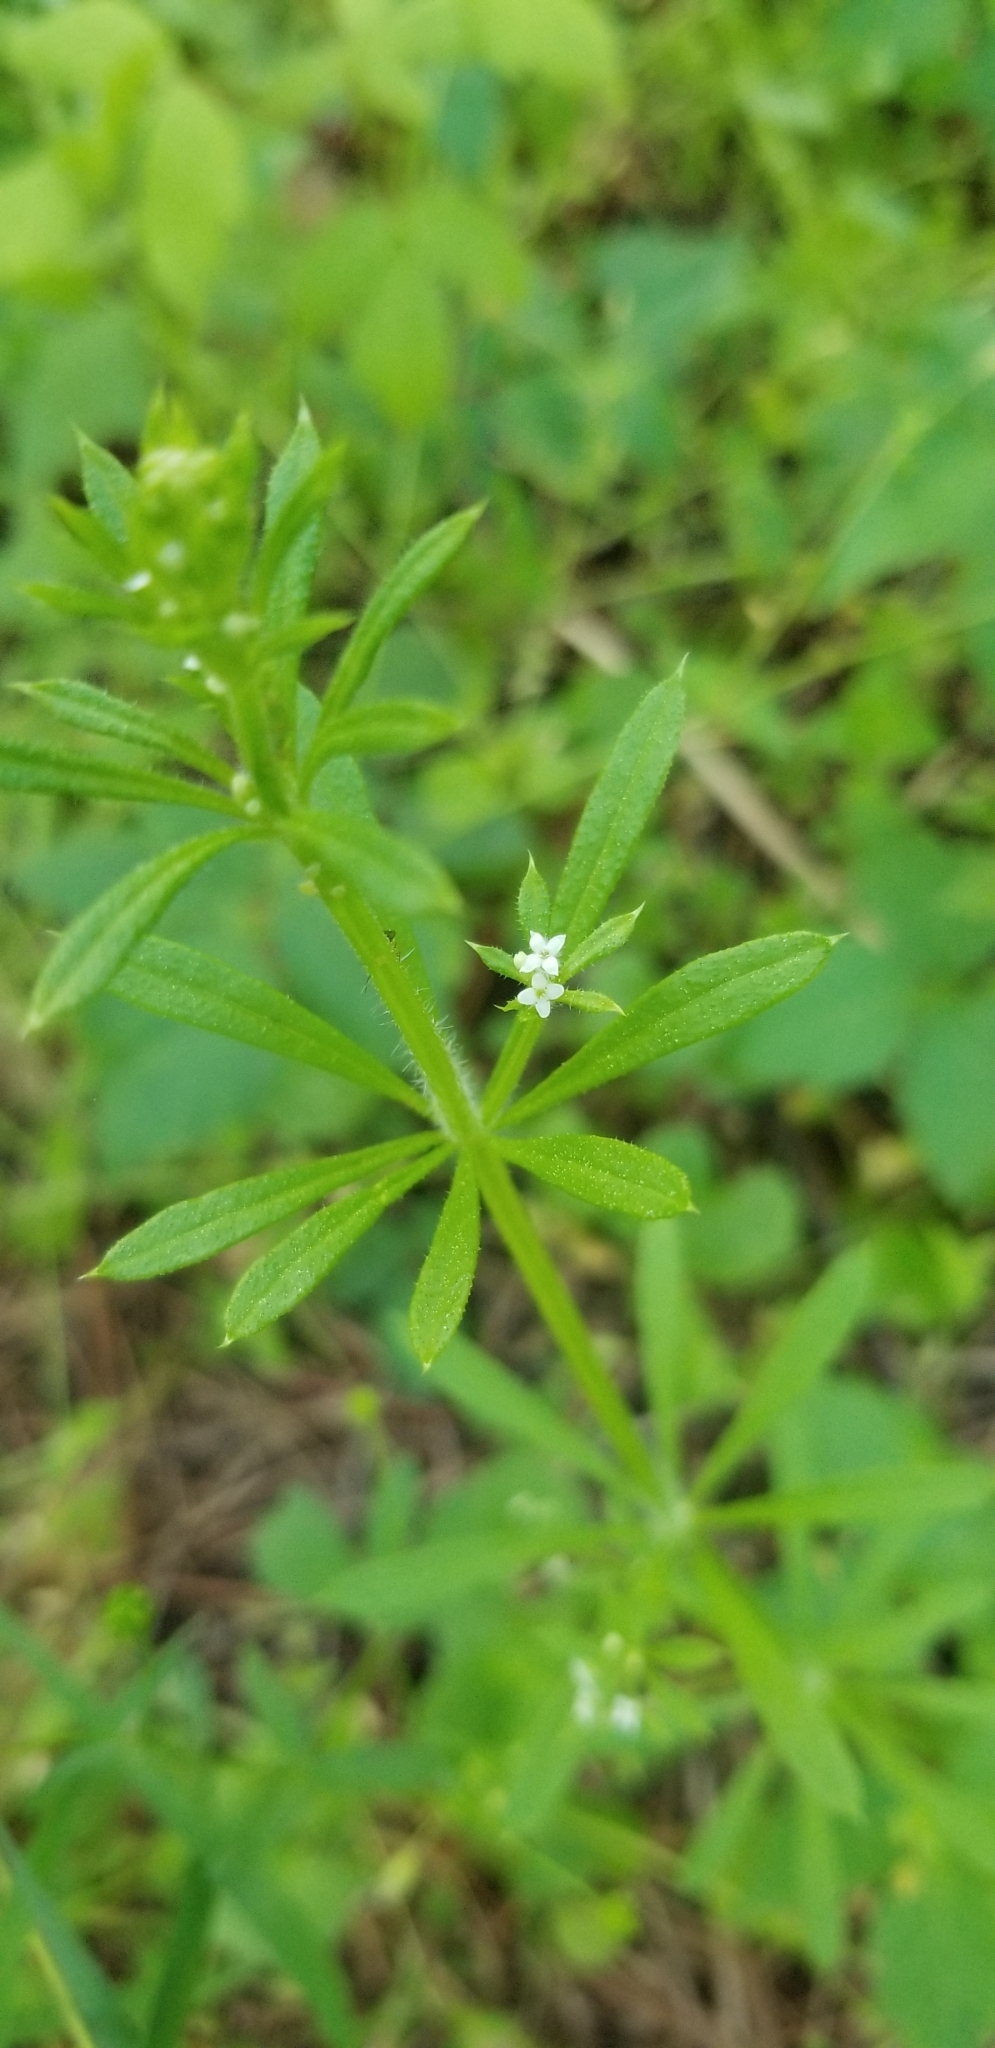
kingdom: Plantae
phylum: Tracheophyta
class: Magnoliopsida
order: Gentianales
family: Rubiaceae
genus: Galium
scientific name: Galium aparine
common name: Cleavers
